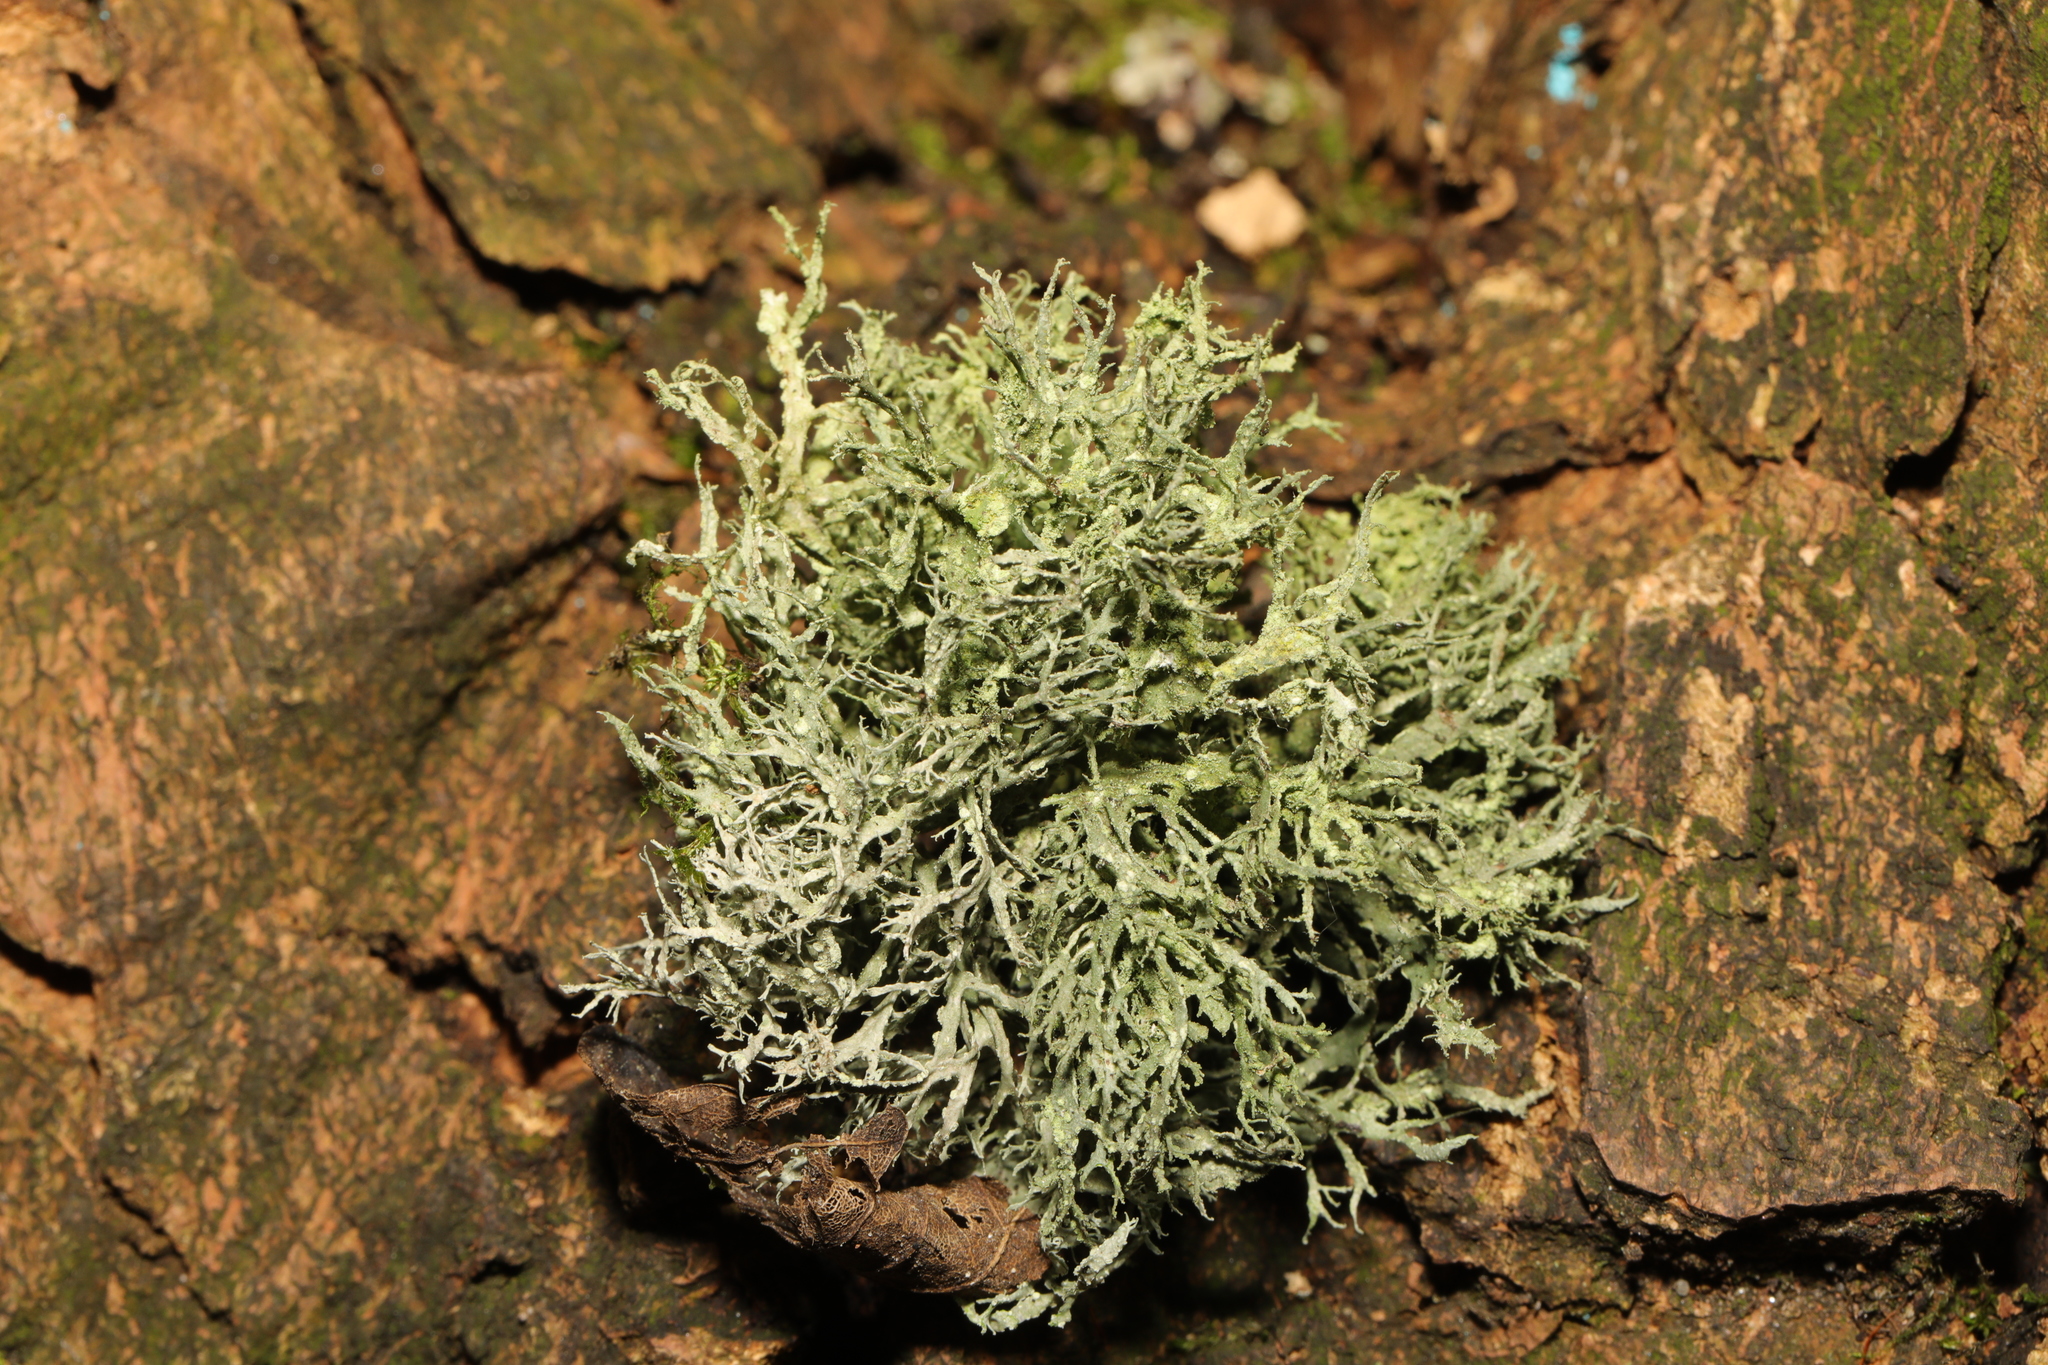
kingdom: Fungi
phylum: Ascomycota
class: Lecanoromycetes
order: Lecanorales
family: Ramalinaceae
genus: Ramalina
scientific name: Ramalina farinacea
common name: Farinose cartilage lichen
